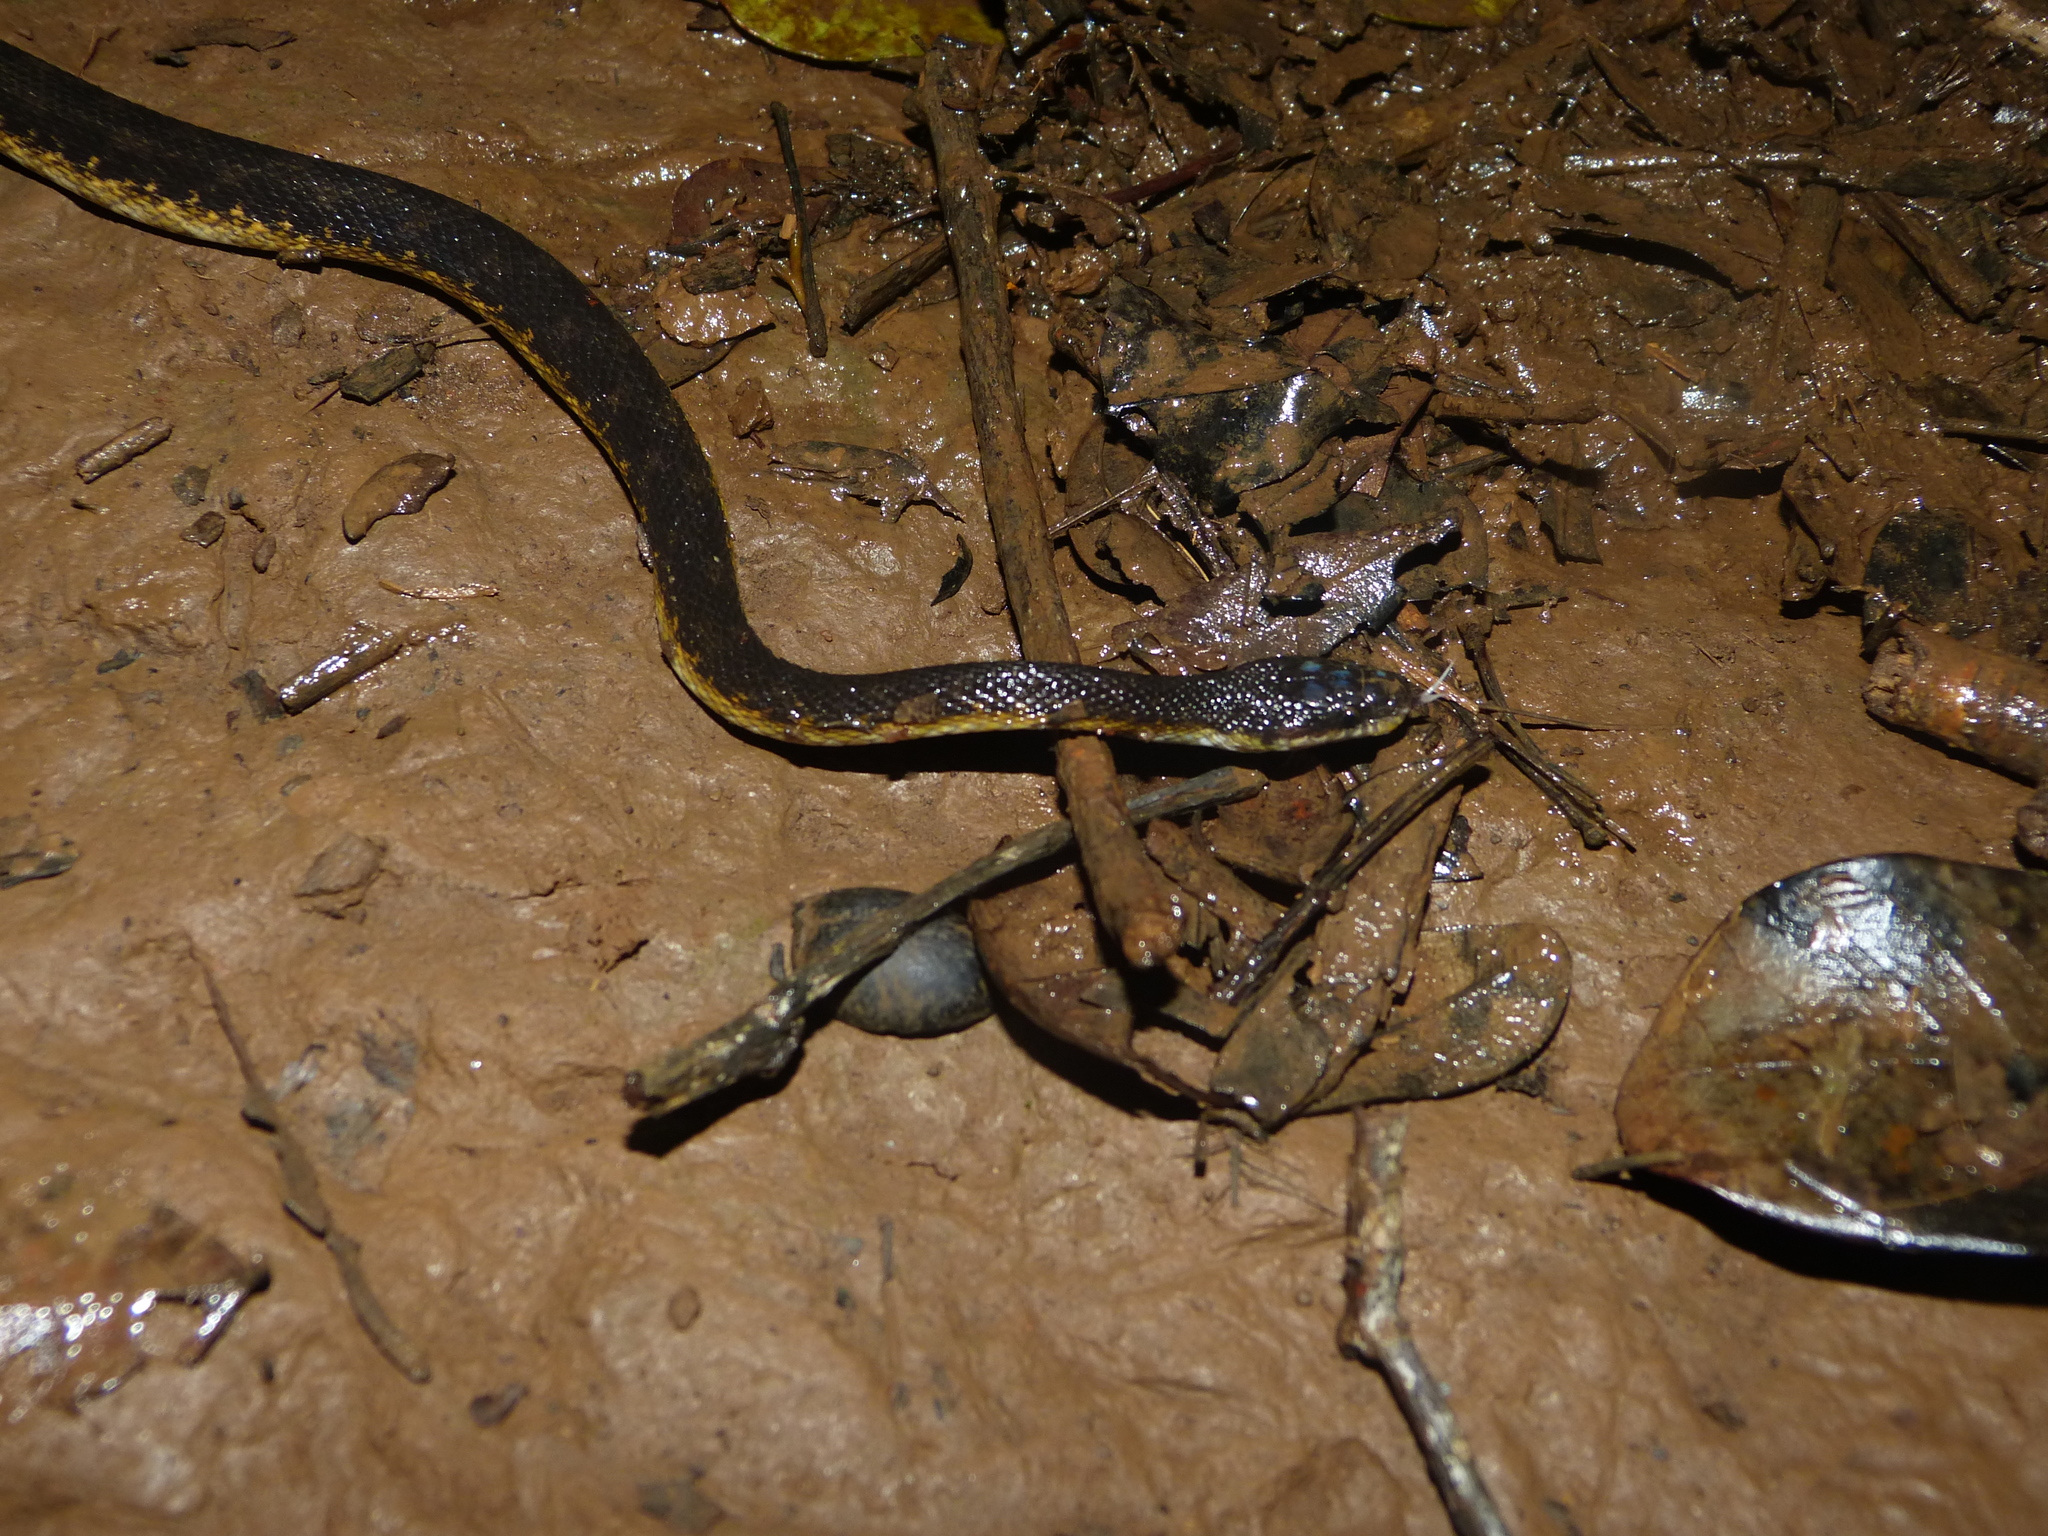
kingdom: Animalia
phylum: Chordata
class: Squamata
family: Pseudoxyrhophiidae
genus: Alluaudina
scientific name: Alluaudina bellyi
